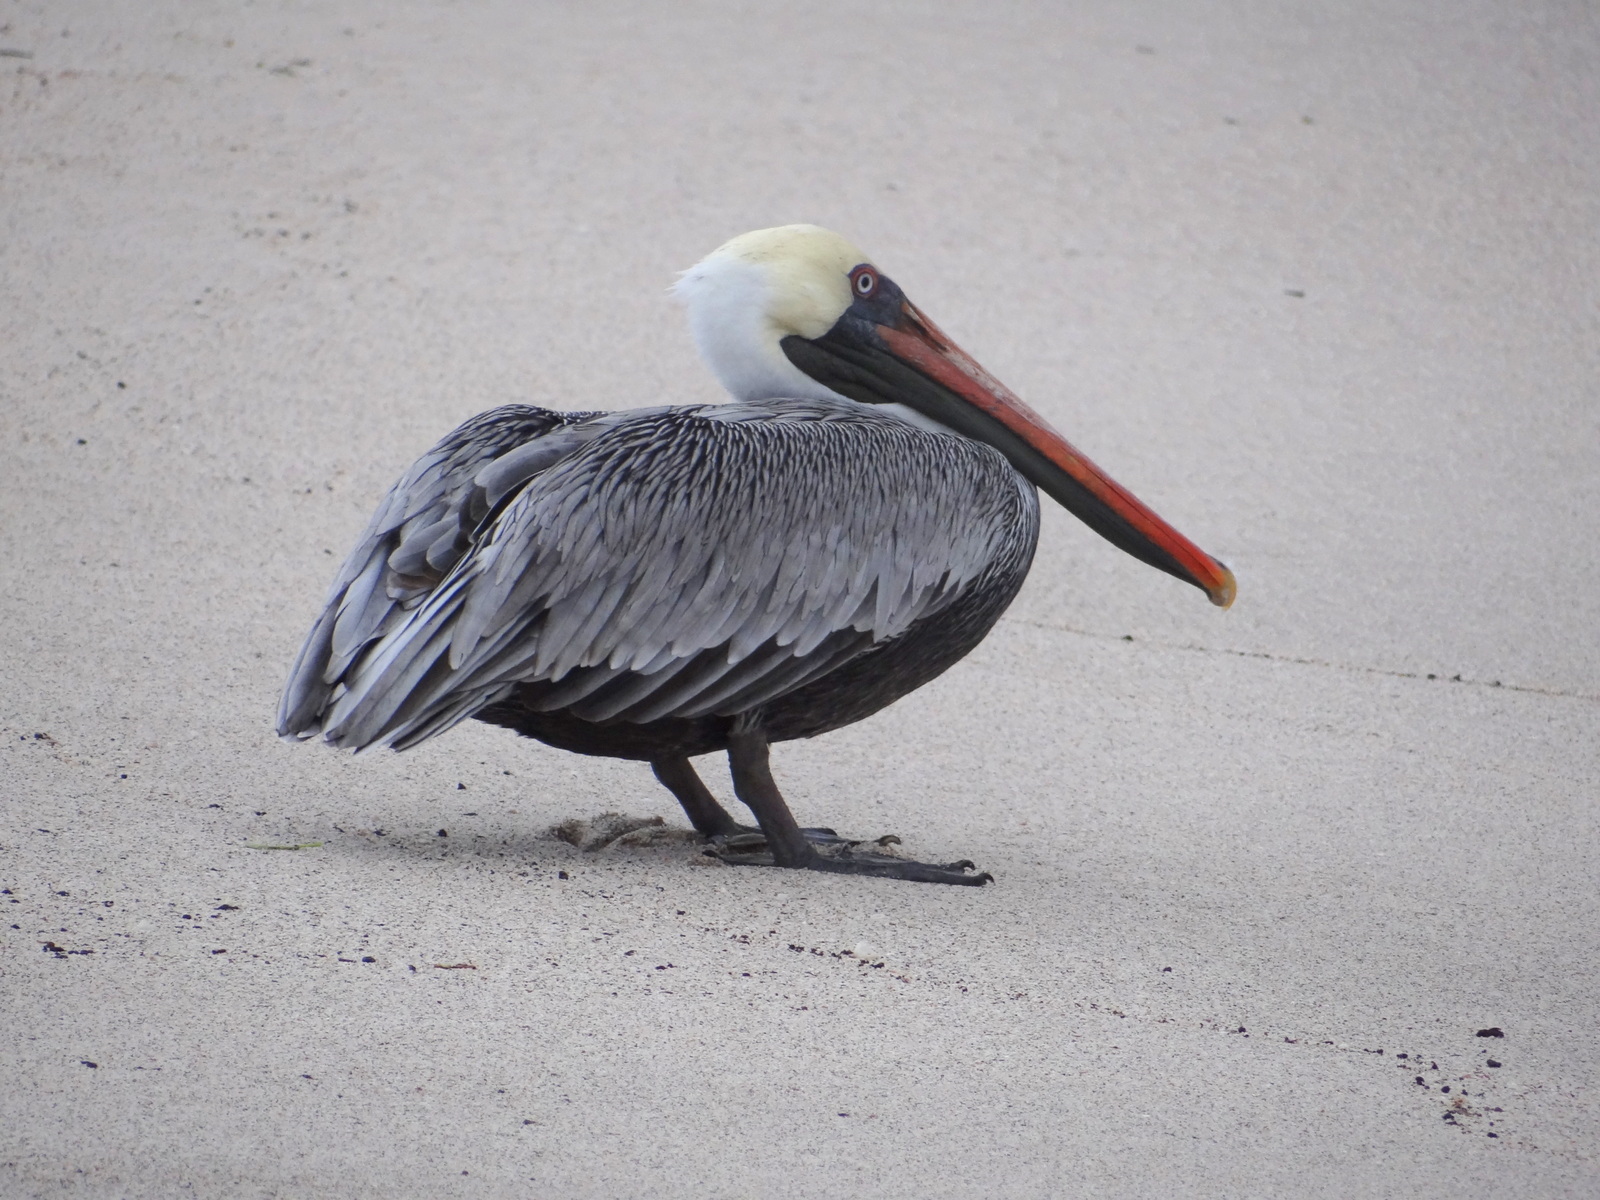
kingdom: Animalia
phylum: Chordata
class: Aves
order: Pelecaniformes
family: Pelecanidae
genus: Pelecanus
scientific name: Pelecanus occidentalis
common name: Brown pelican
